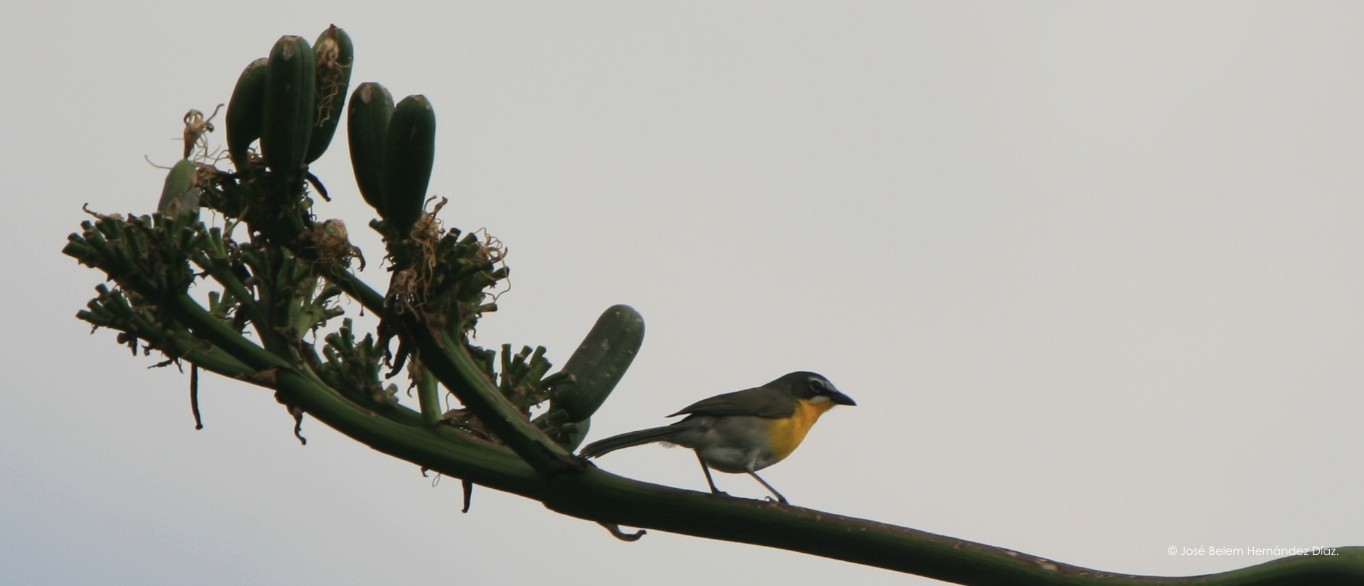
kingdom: Animalia
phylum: Chordata
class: Aves
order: Passeriformes
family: Parulidae
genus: Icteria
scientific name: Icteria virens
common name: Yellow-breasted chat
